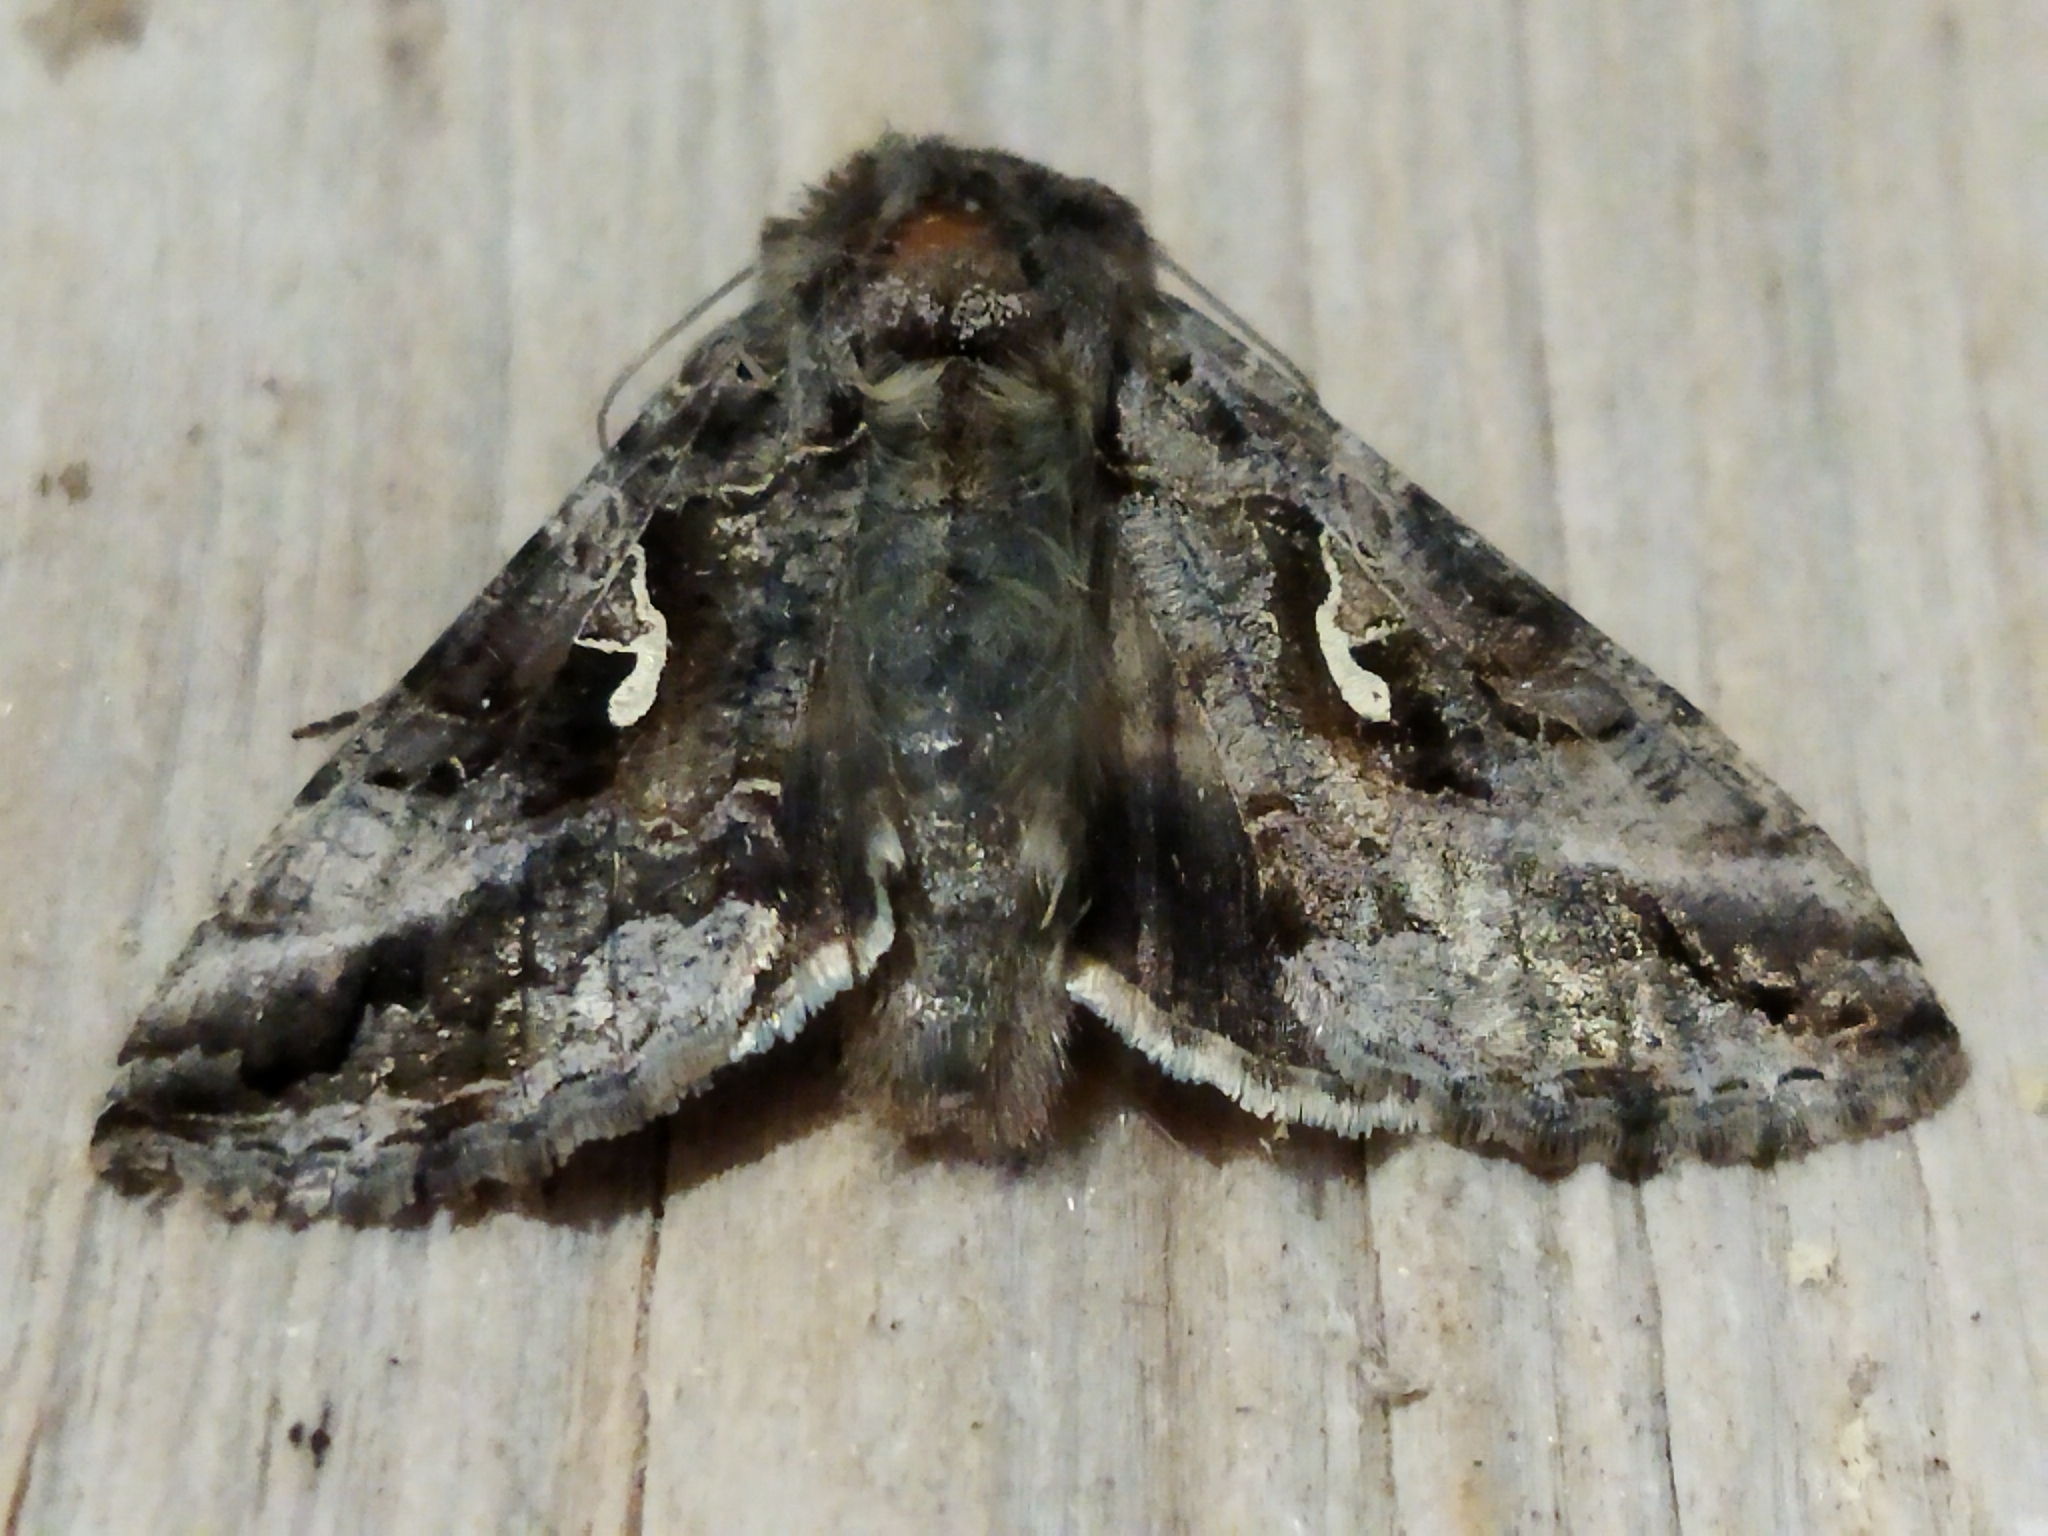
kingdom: Animalia
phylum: Arthropoda
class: Insecta
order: Lepidoptera
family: Noctuidae
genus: Autographa
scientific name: Autographa gamma
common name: Silver y
